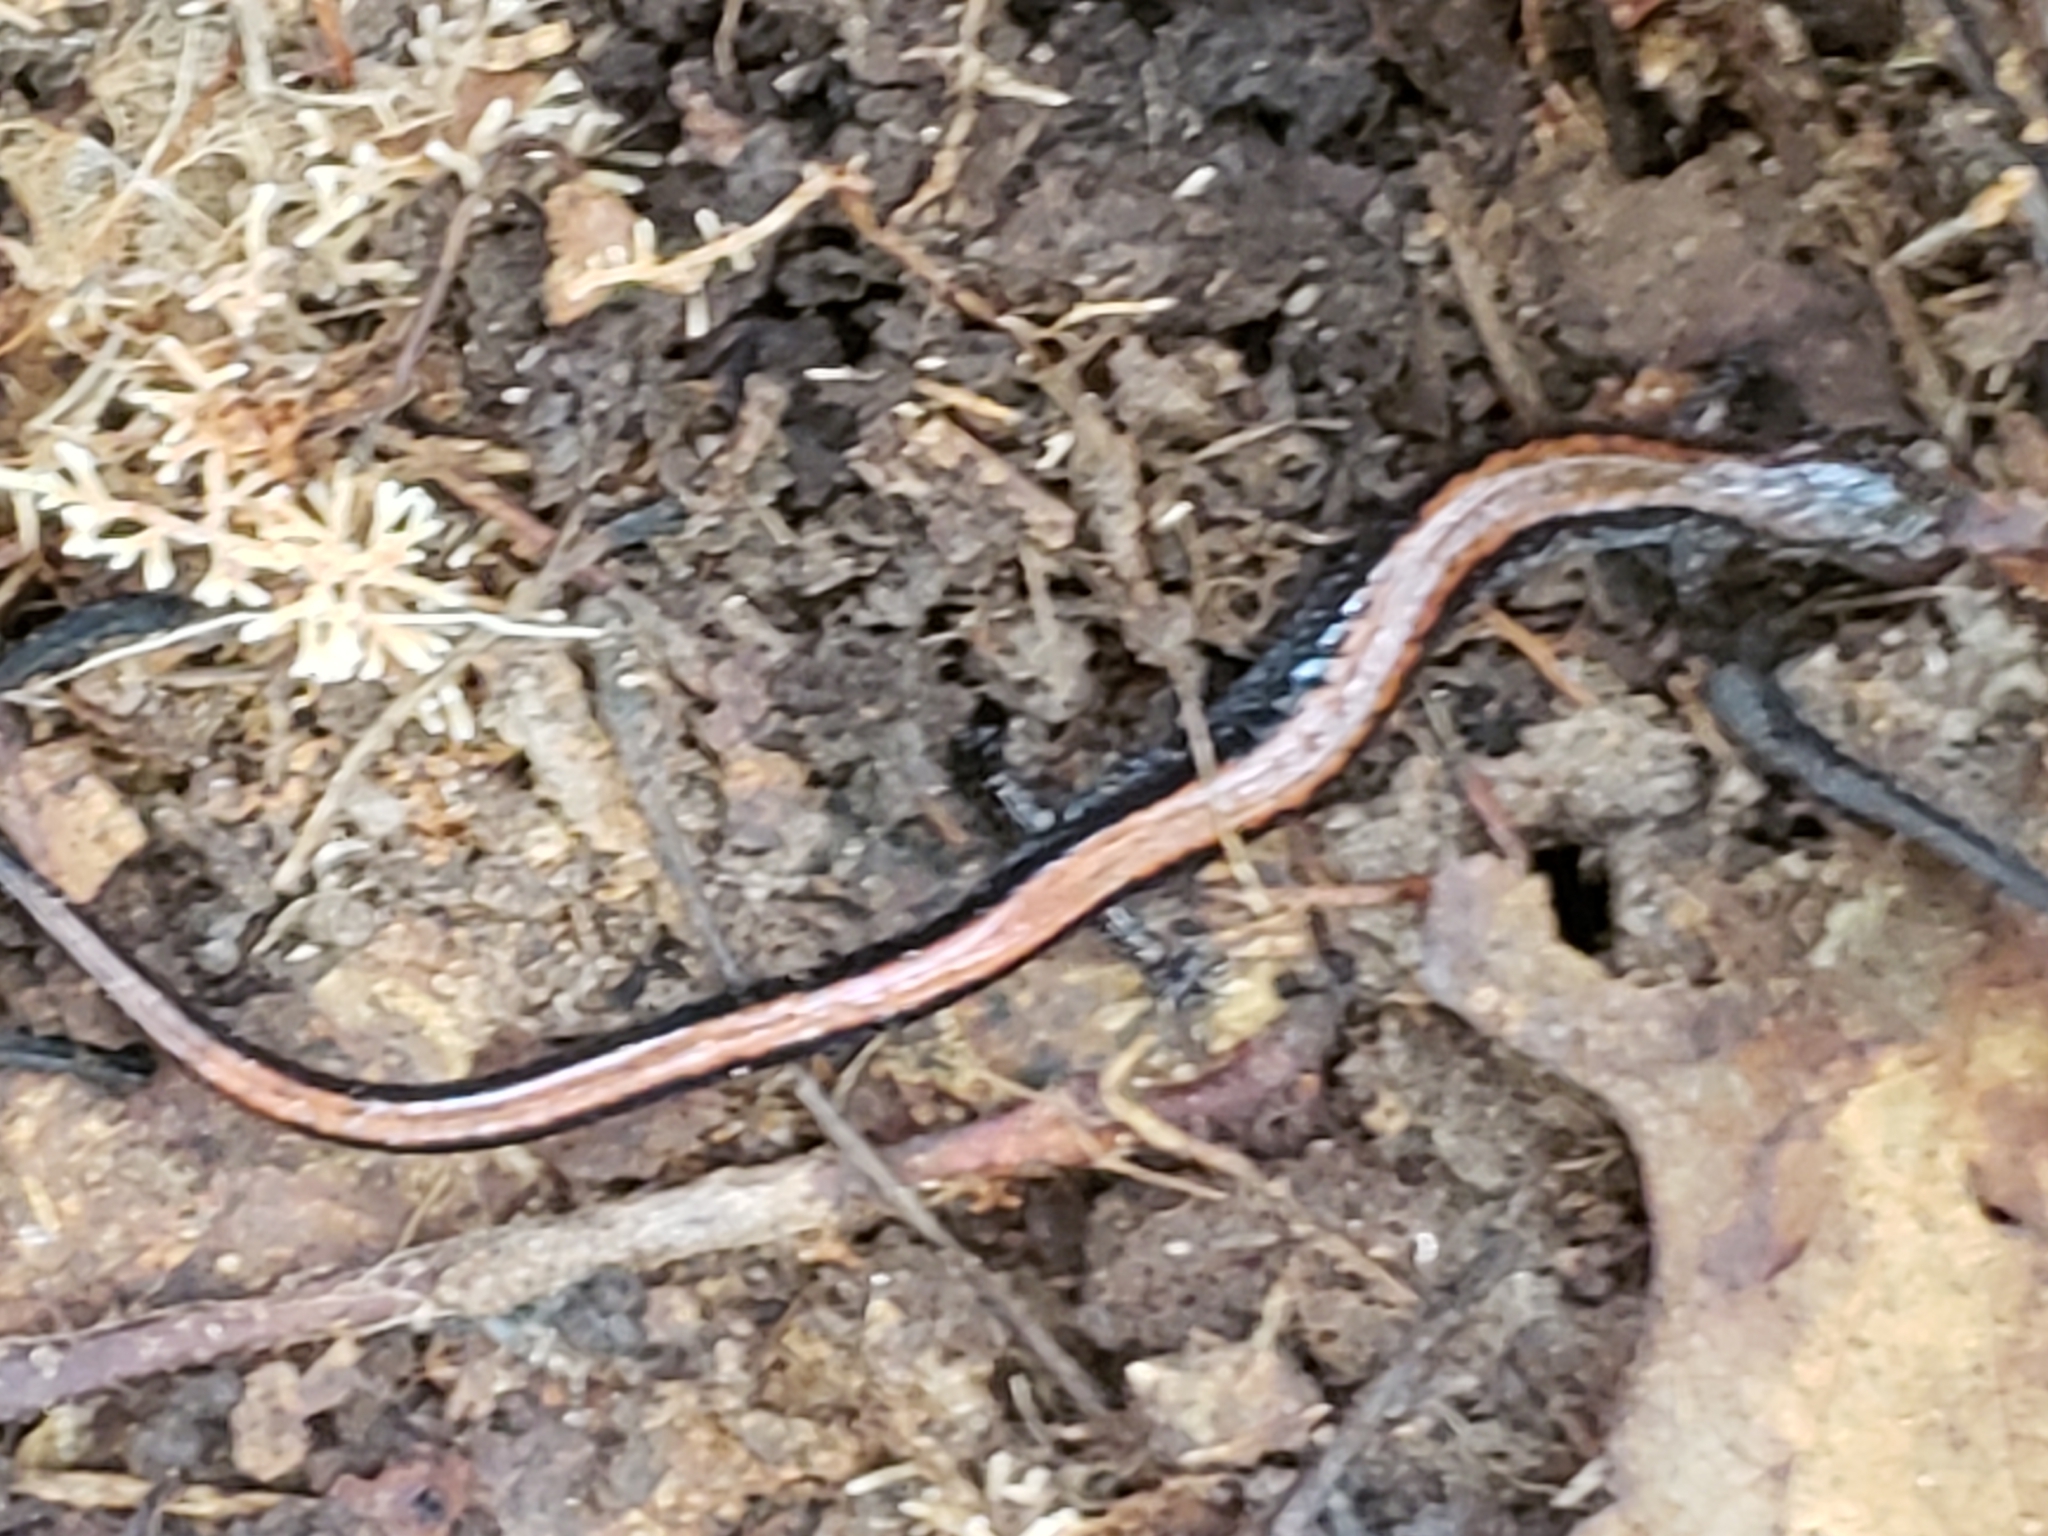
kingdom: Animalia
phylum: Chordata
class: Amphibia
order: Caudata
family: Plethodontidae
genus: Plethodon
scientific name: Plethodon cinereus
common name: Redback salamander
